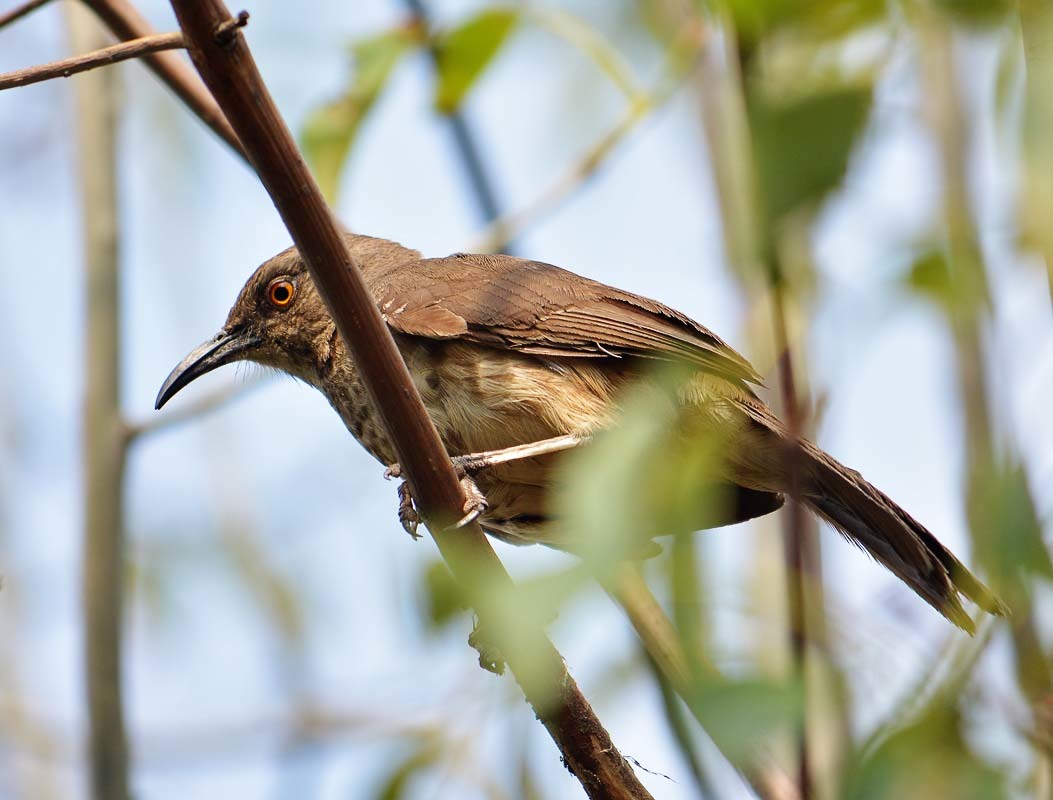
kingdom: Animalia
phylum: Chordata
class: Aves
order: Passeriformes
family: Mimidae
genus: Toxostoma
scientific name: Toxostoma curvirostre
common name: Curve-billed thrasher
